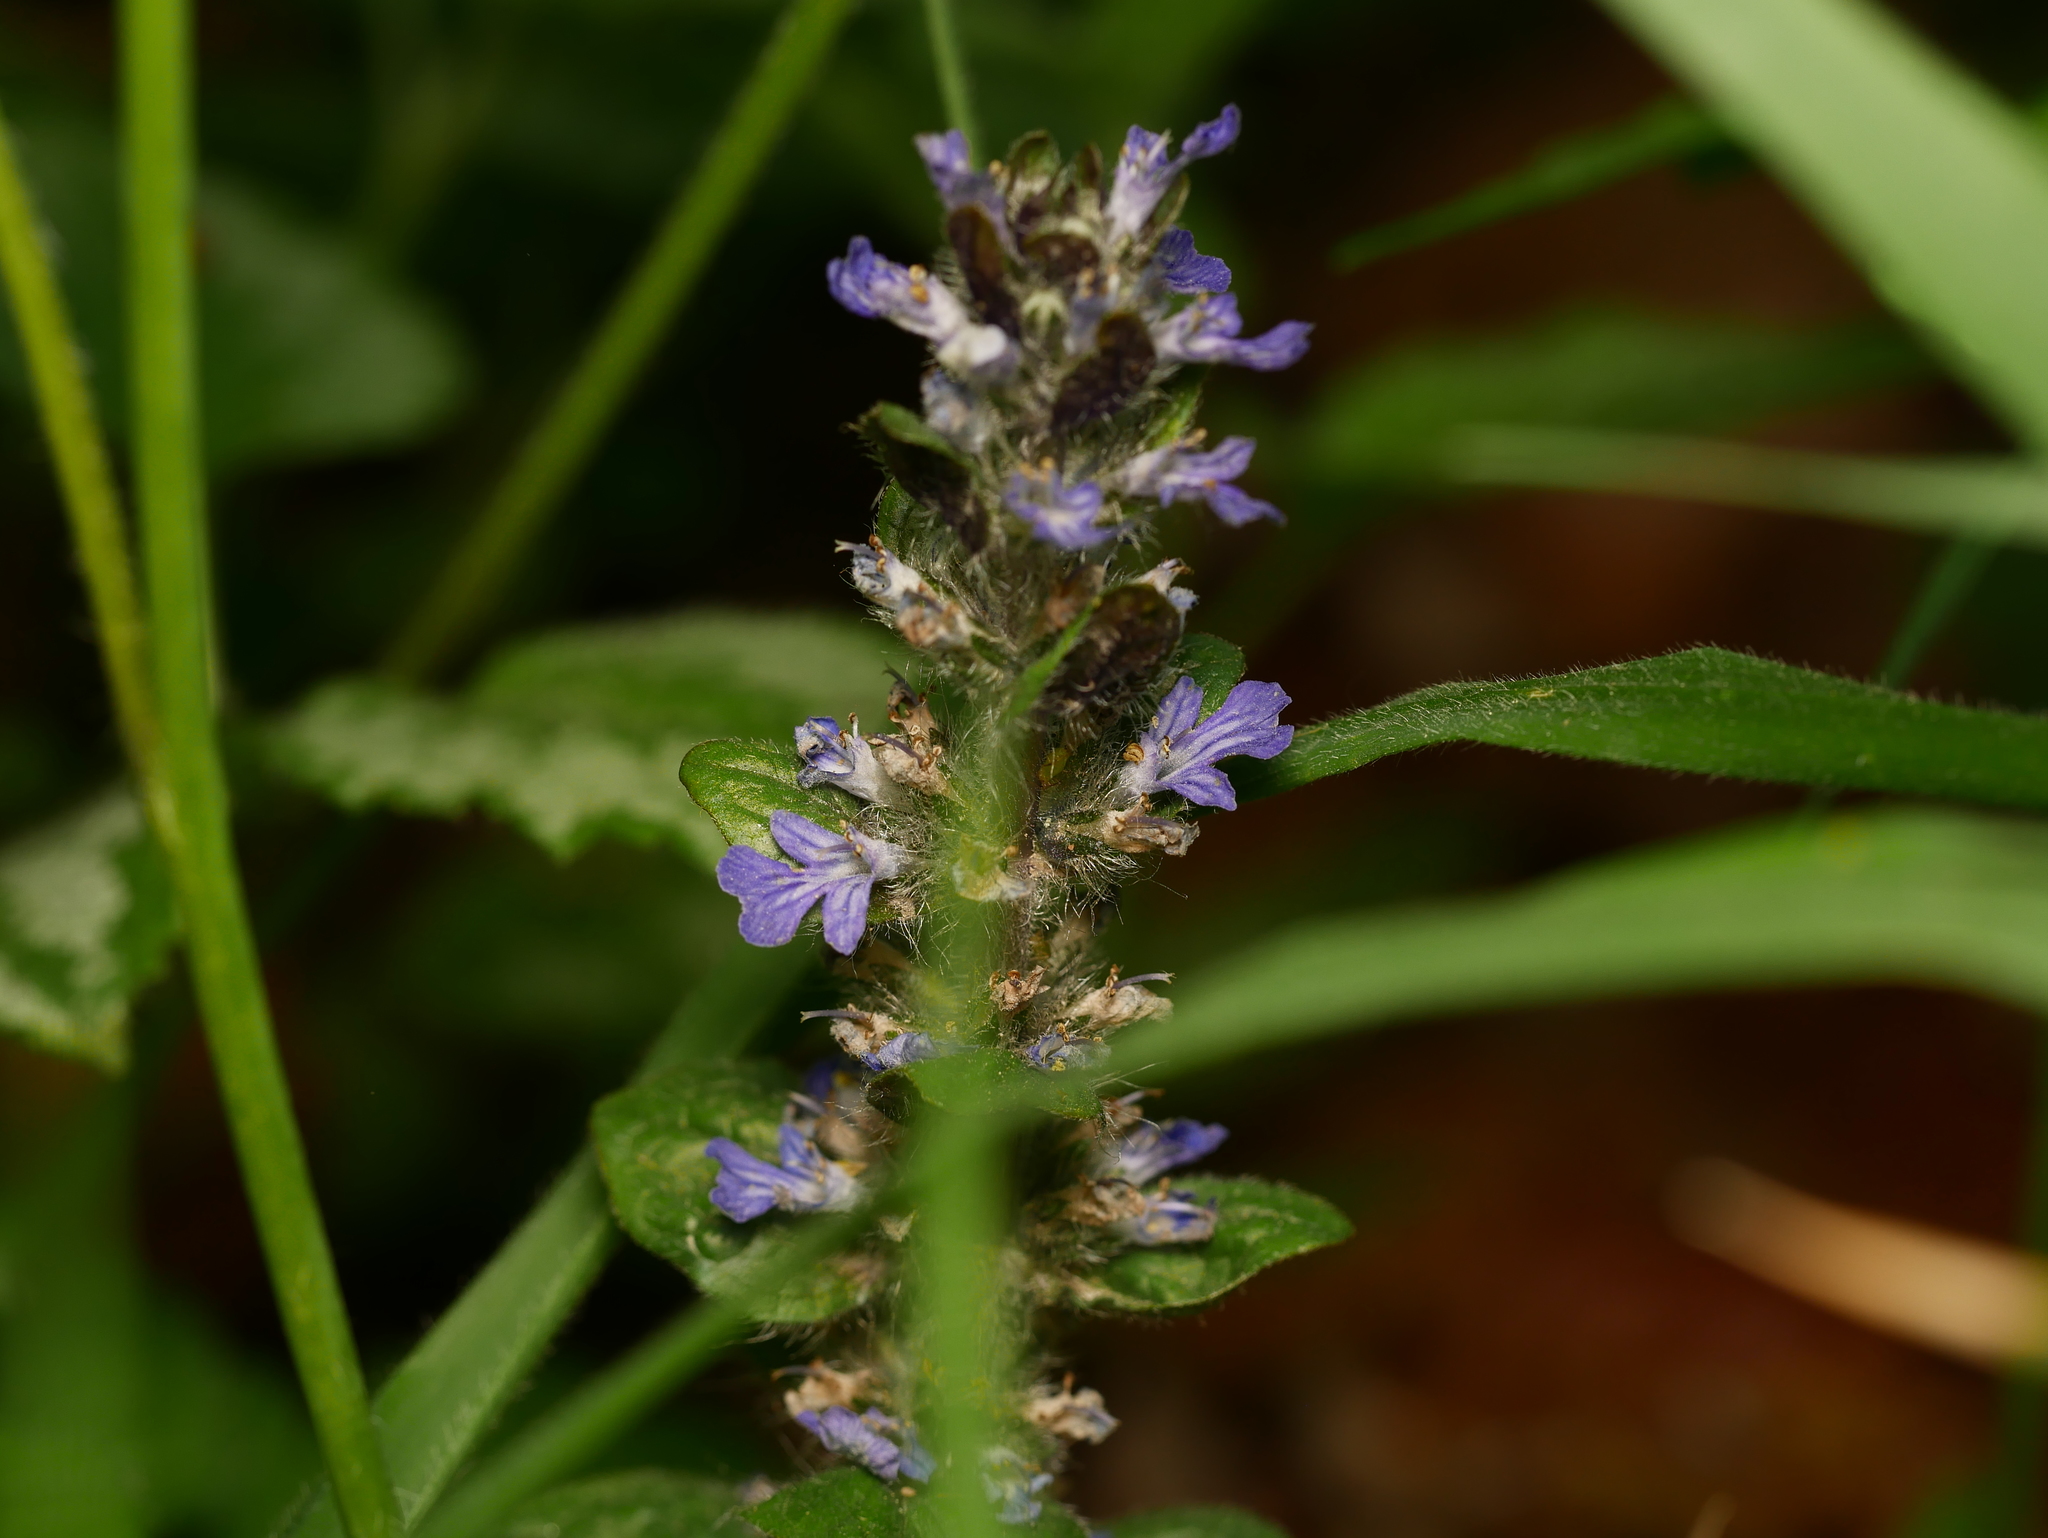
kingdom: Plantae
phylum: Tracheophyta
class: Magnoliopsida
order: Lamiales
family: Lamiaceae
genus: Ajuga
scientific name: Ajuga reptans
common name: Bugle
